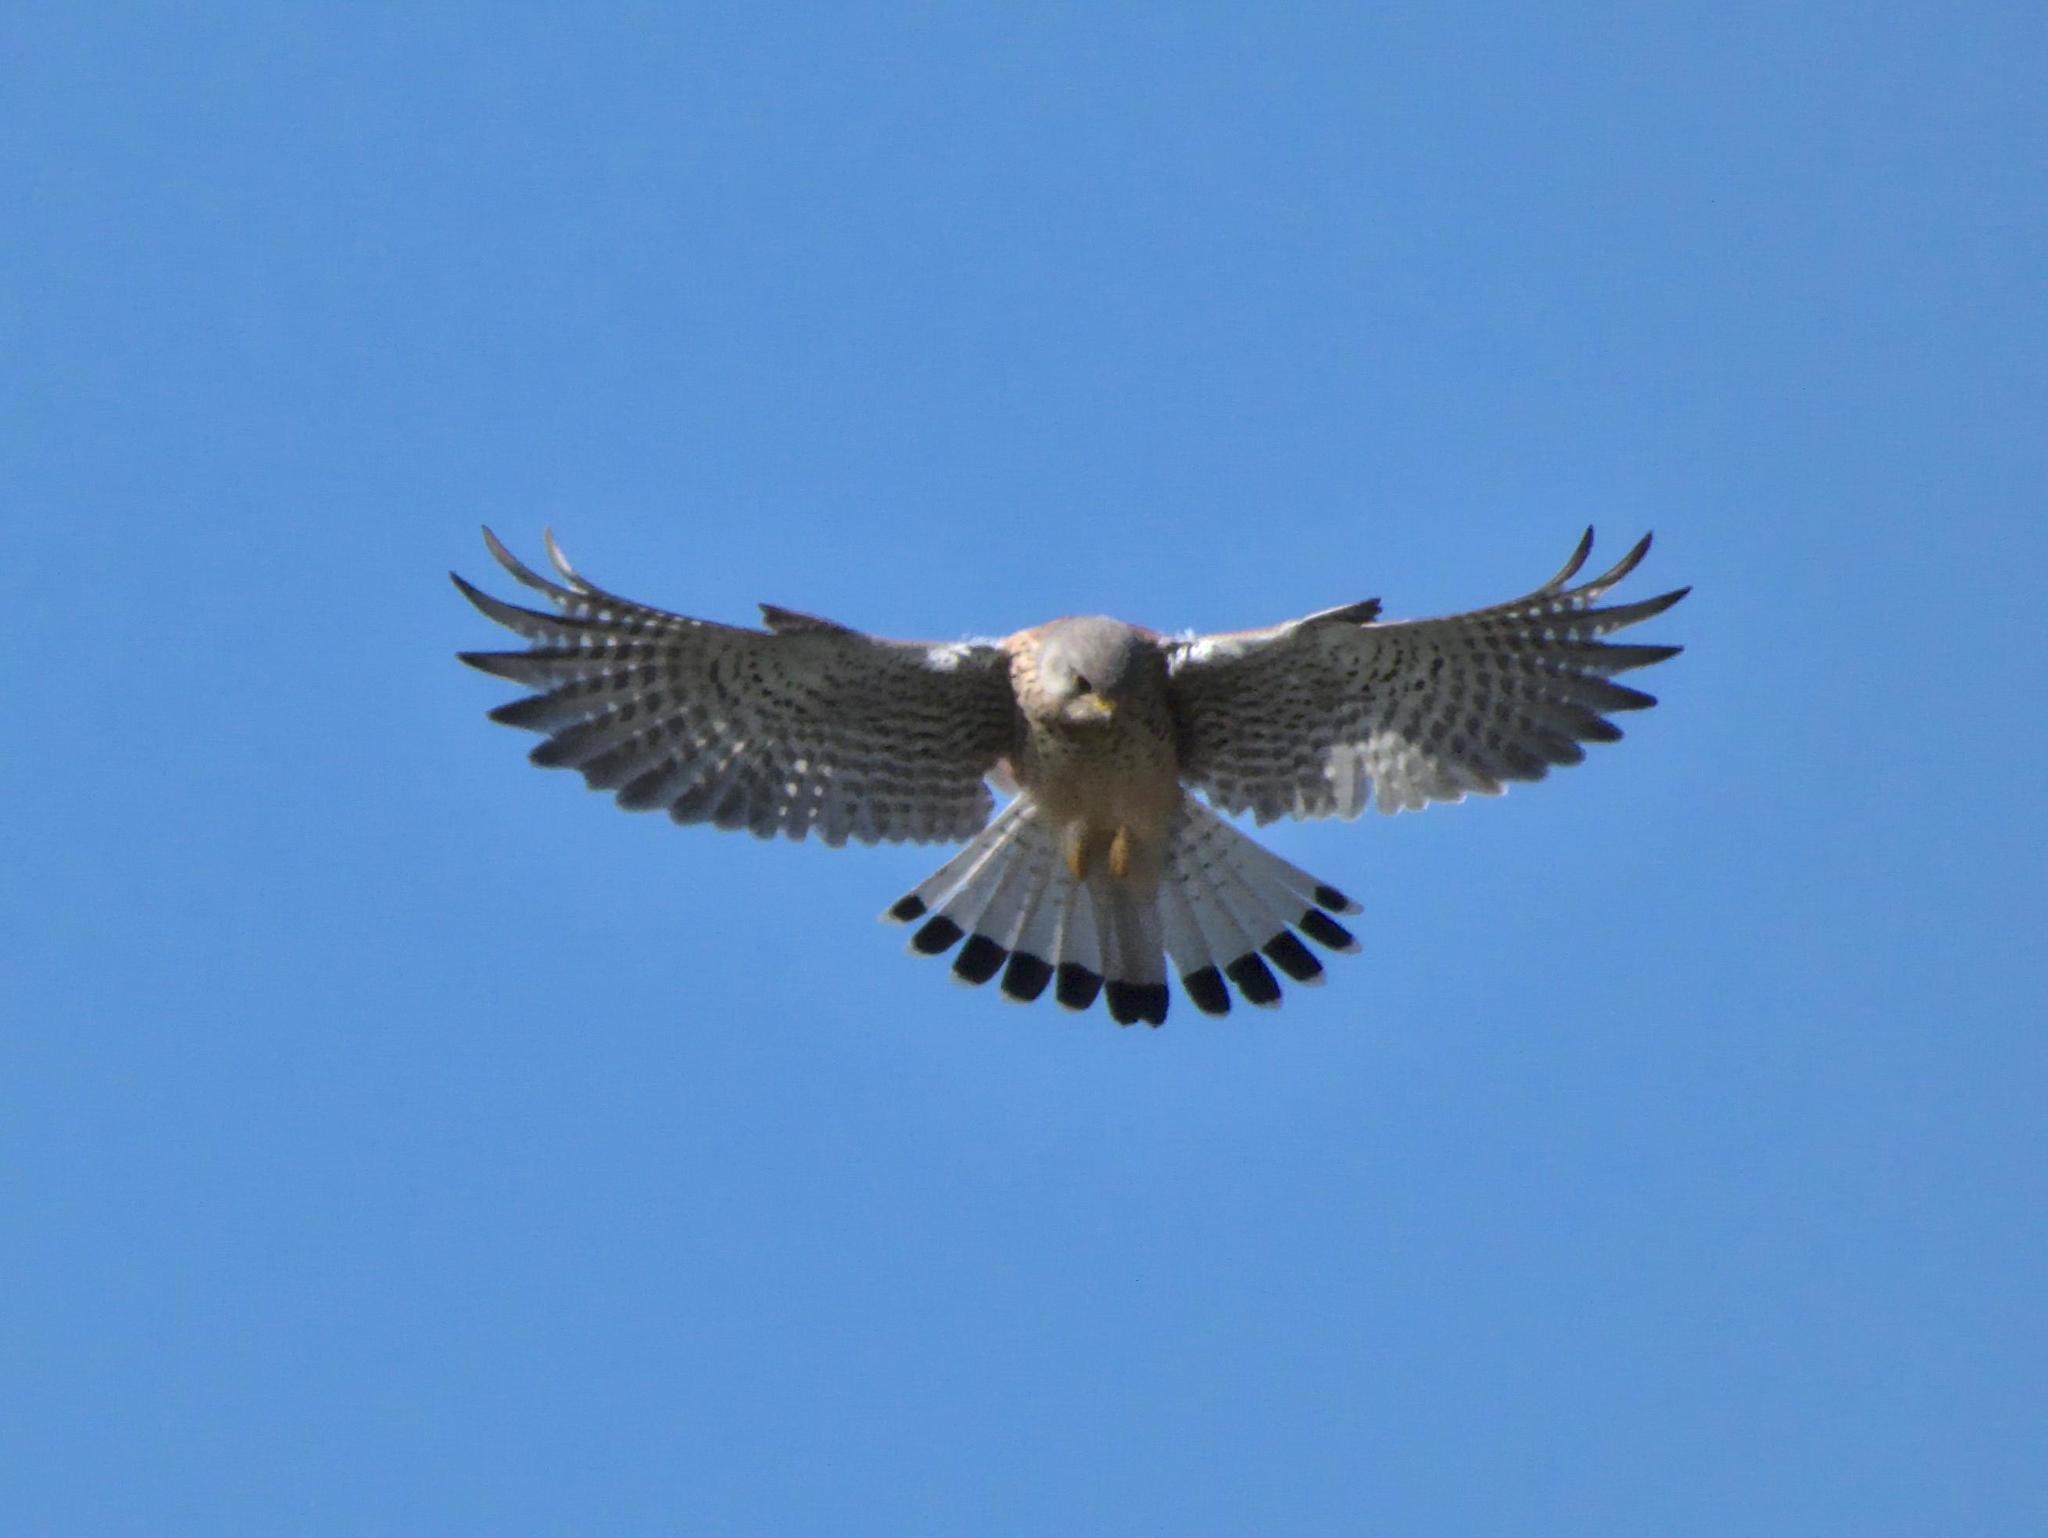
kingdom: Animalia
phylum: Chordata
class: Aves
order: Falconiformes
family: Falconidae
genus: Falco
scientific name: Falco tinnunculus
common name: Common kestrel
